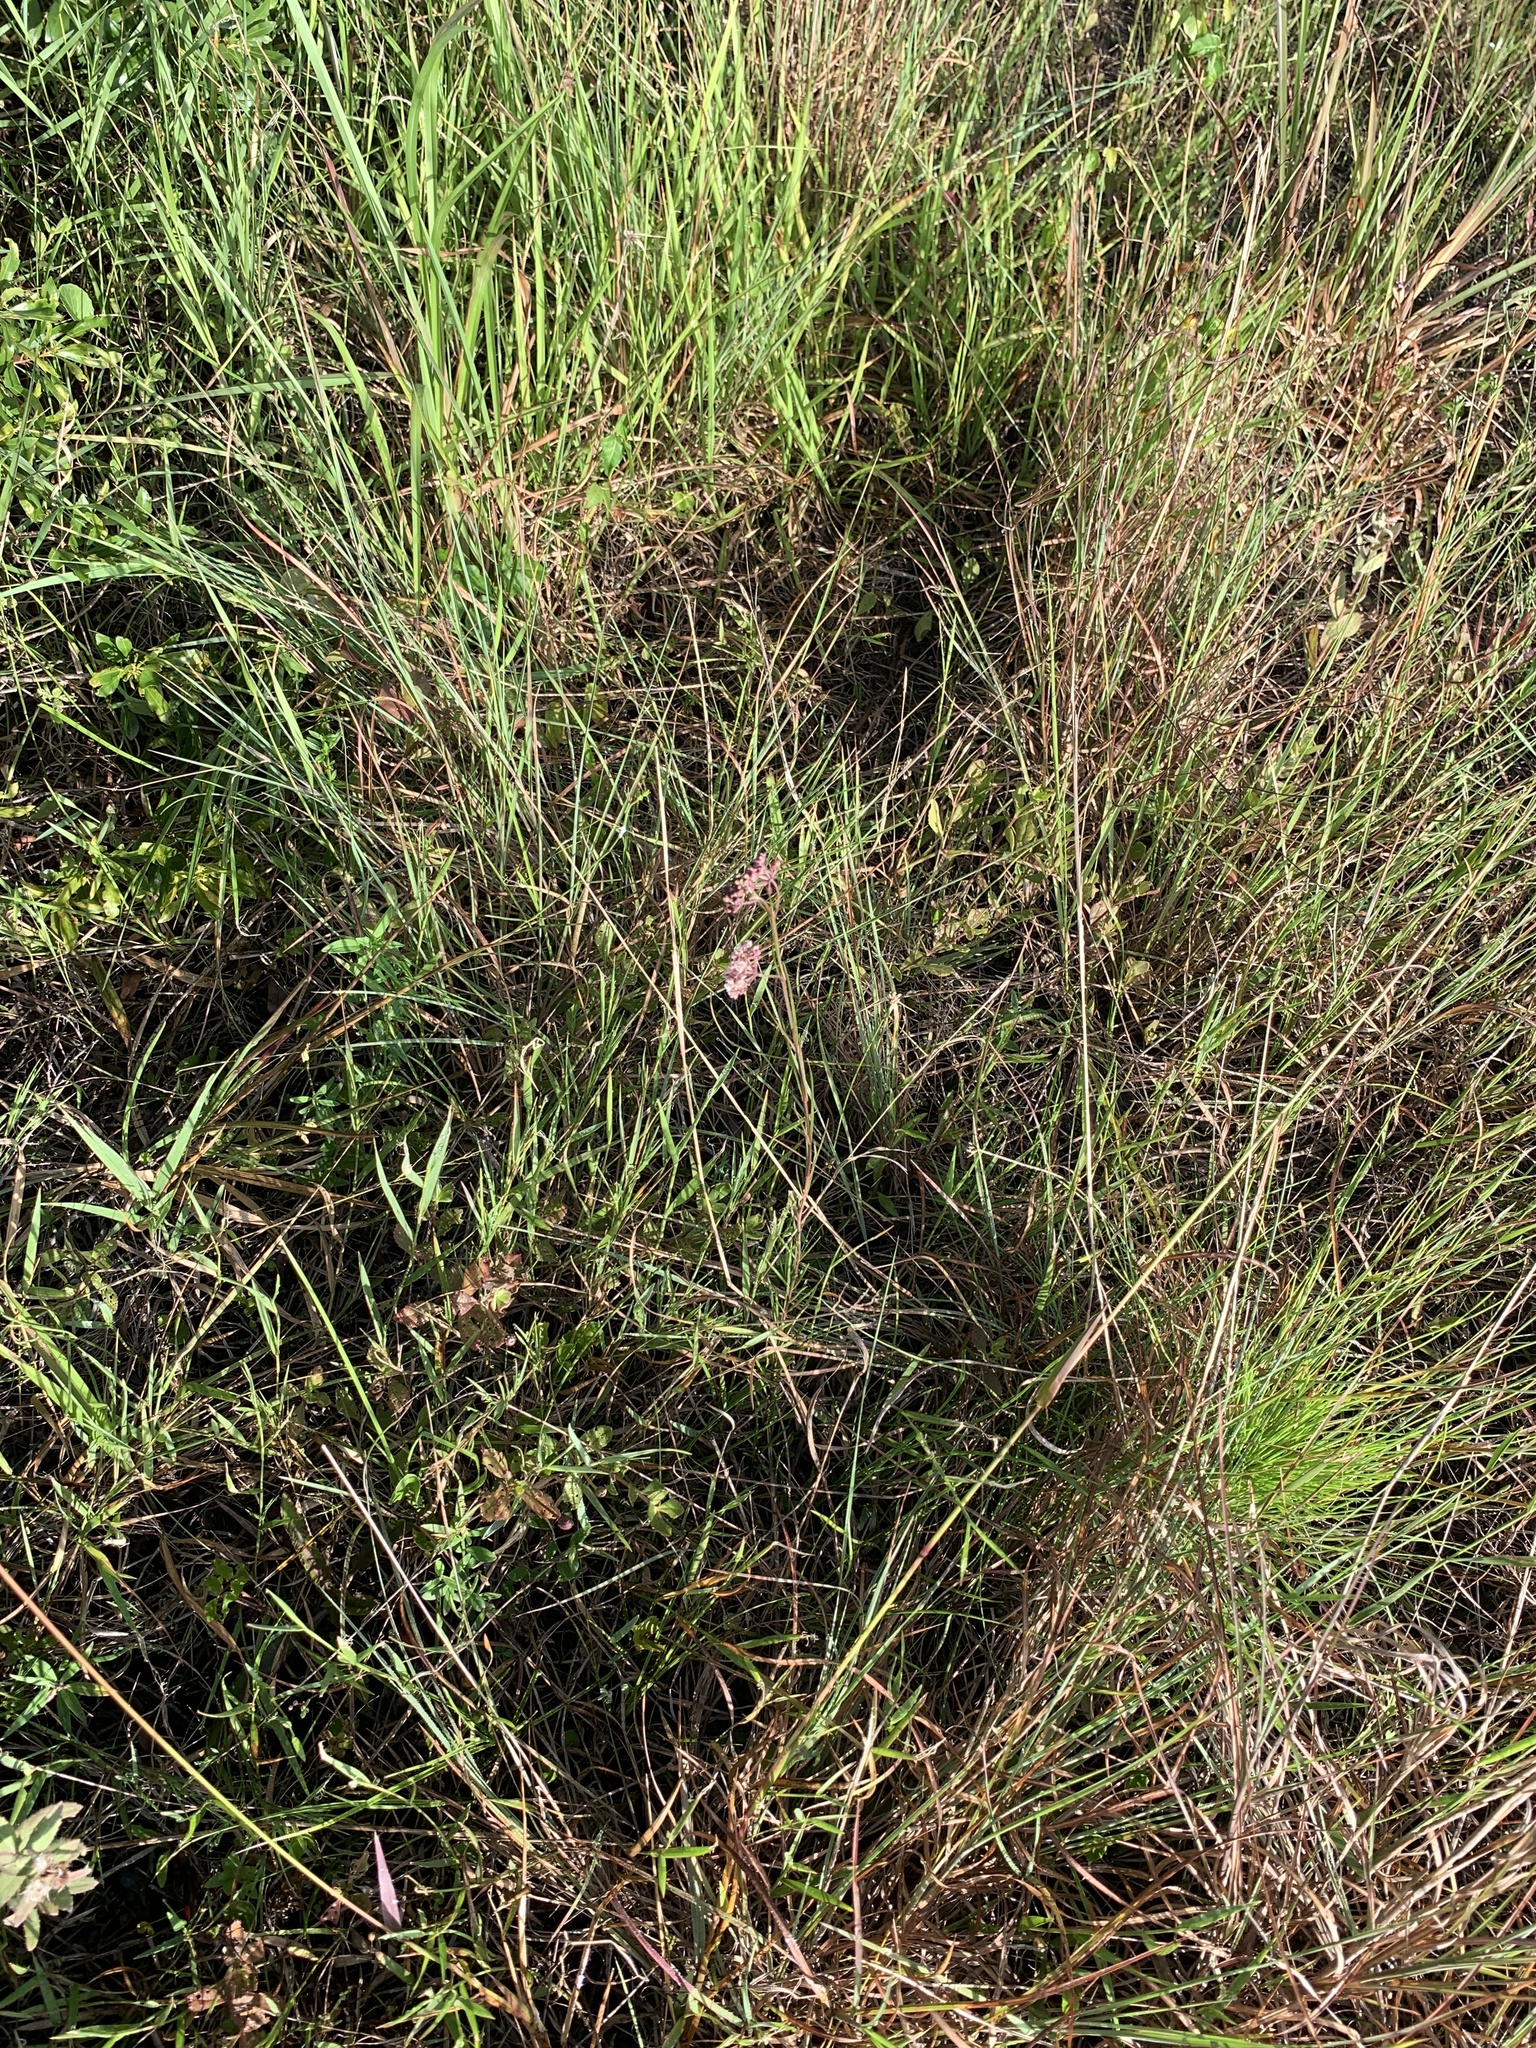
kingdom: Plantae
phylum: Tracheophyta
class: Magnoliopsida
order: Gentianales
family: Apocynaceae
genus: Asclepias
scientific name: Asclepias verticillata
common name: Eastern whorled milkweed
